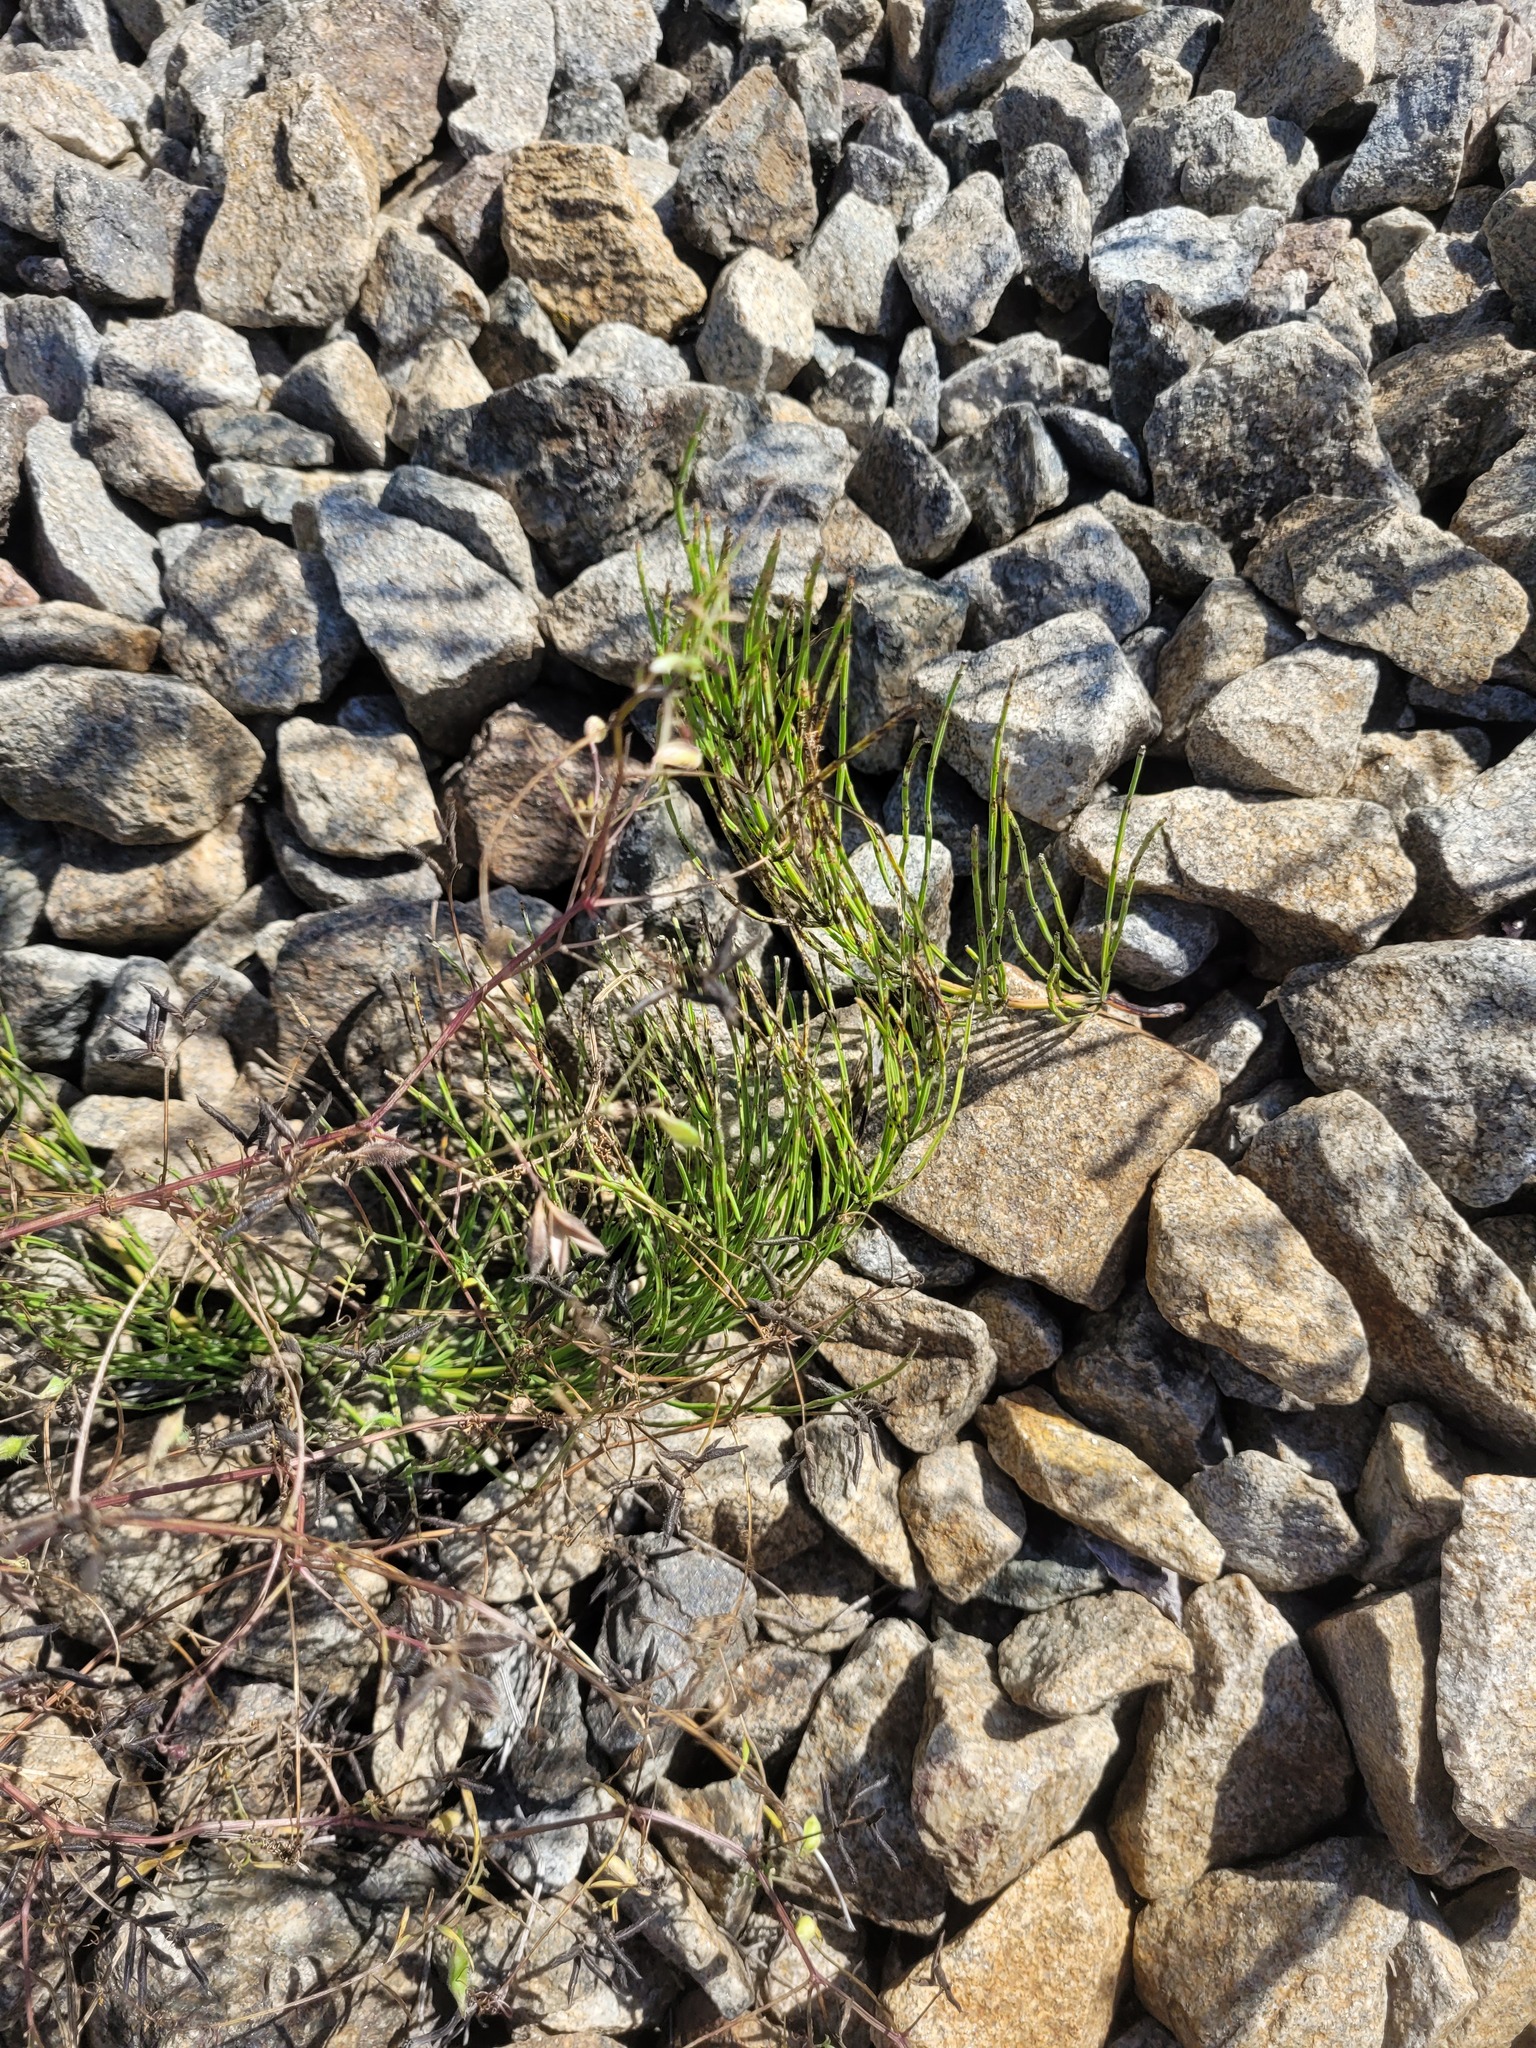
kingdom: Plantae
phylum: Tracheophyta
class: Magnoliopsida
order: Fabales
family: Fabaceae
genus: Vicia
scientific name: Vicia hirsuta
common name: Tiny vetch
